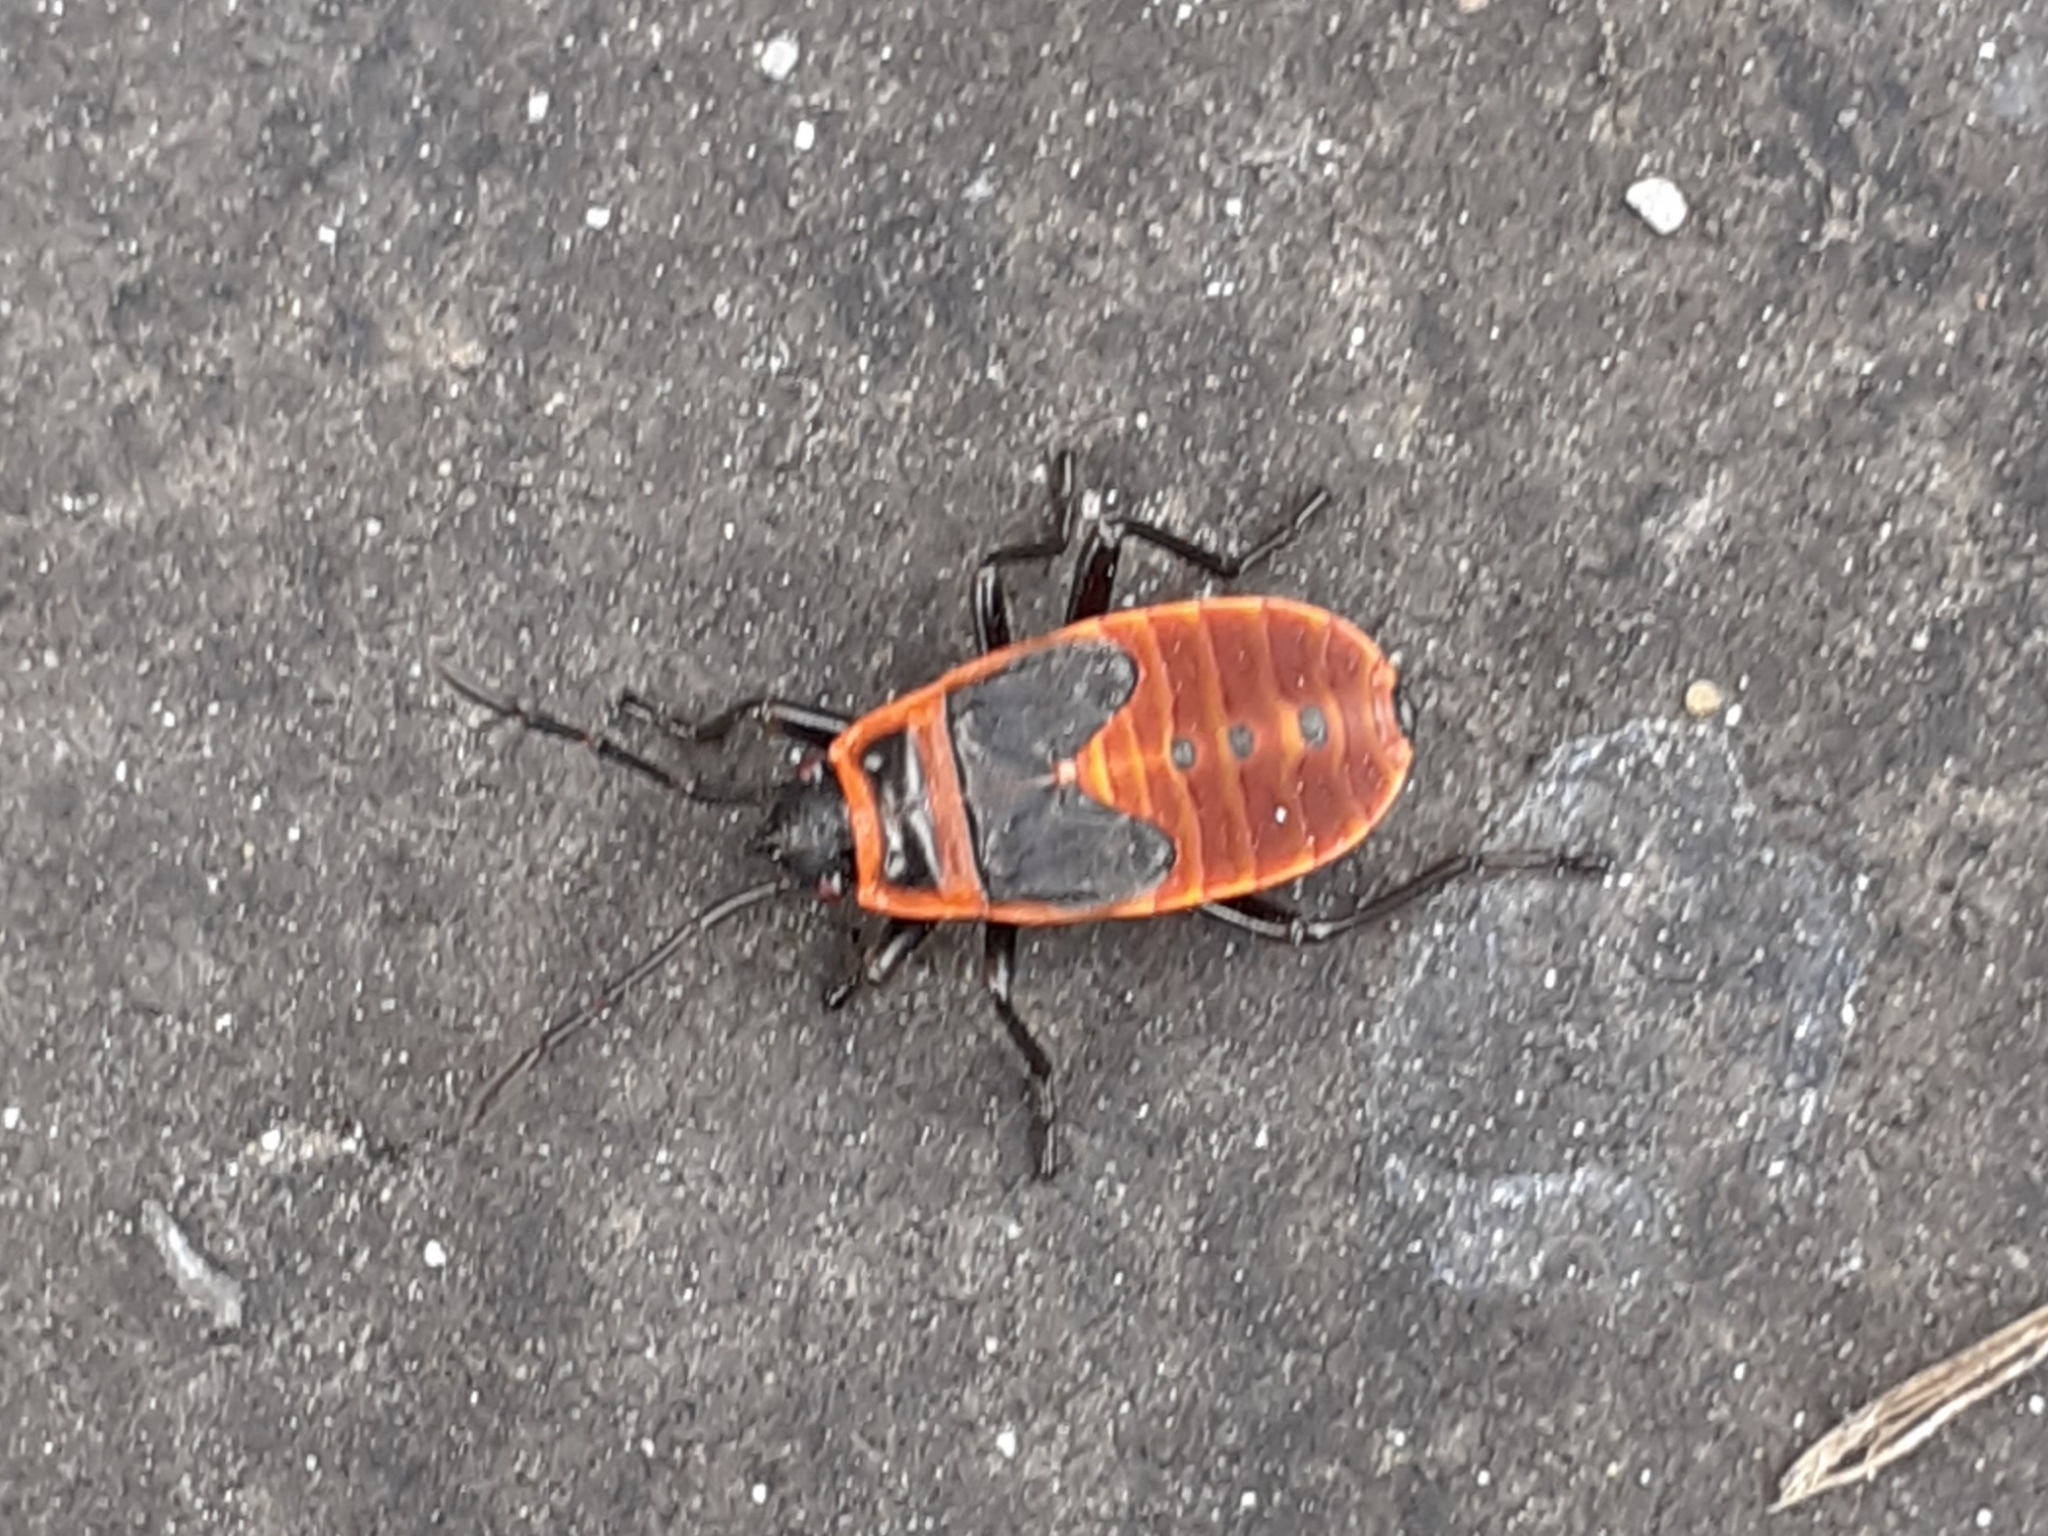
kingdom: Animalia
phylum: Arthropoda
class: Insecta
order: Hemiptera
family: Pyrrhocoridae
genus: Pyrrhocoris
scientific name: Pyrrhocoris apterus
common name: Firebug
